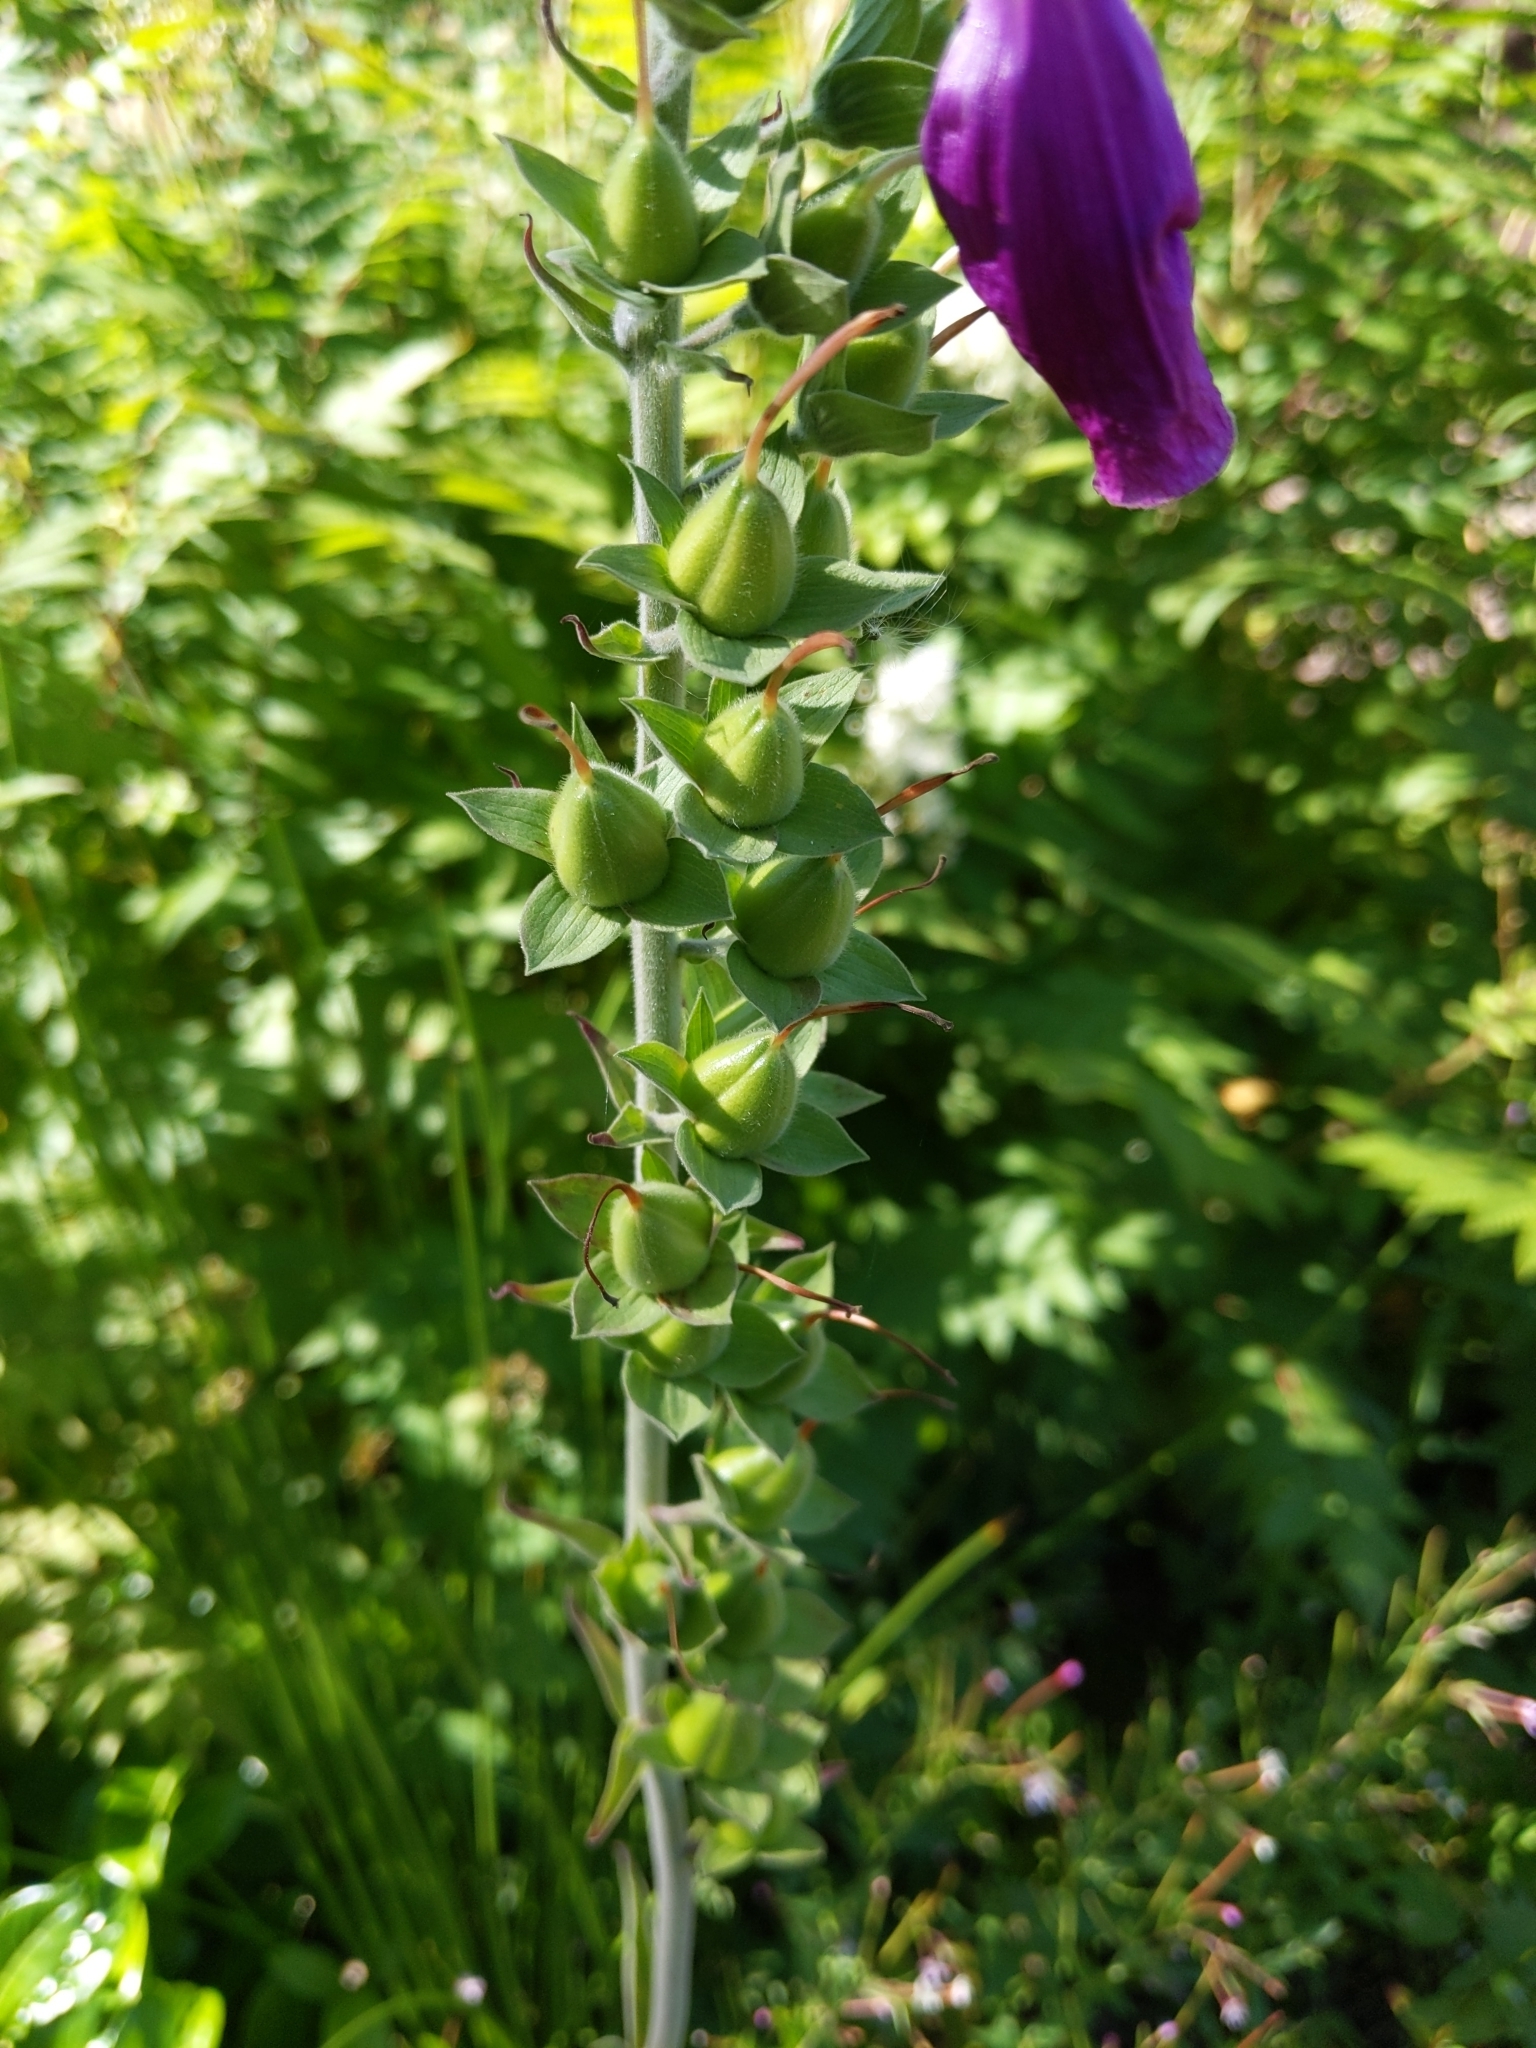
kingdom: Plantae
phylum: Tracheophyta
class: Magnoliopsida
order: Lamiales
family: Plantaginaceae
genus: Digitalis
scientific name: Digitalis purpurea
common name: Foxglove
